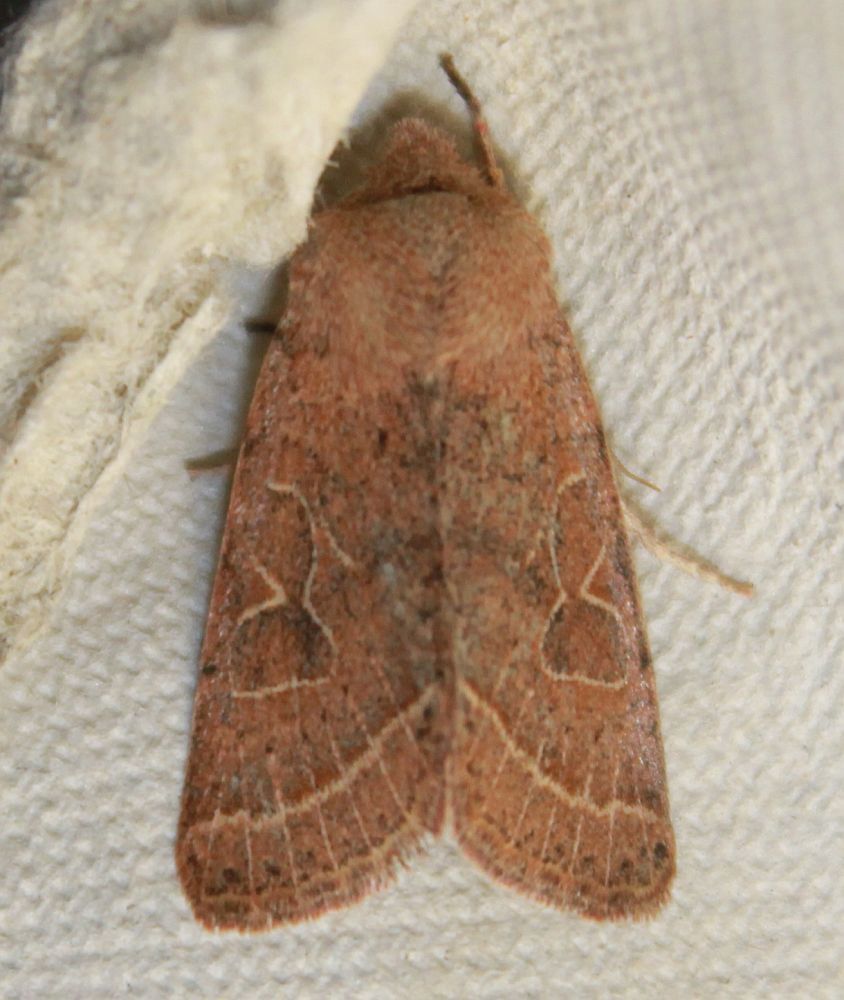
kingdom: Animalia
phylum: Arthropoda
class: Insecta
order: Lepidoptera
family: Noctuidae
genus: Orthosia
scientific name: Orthosia cerasi
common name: Common quaker
